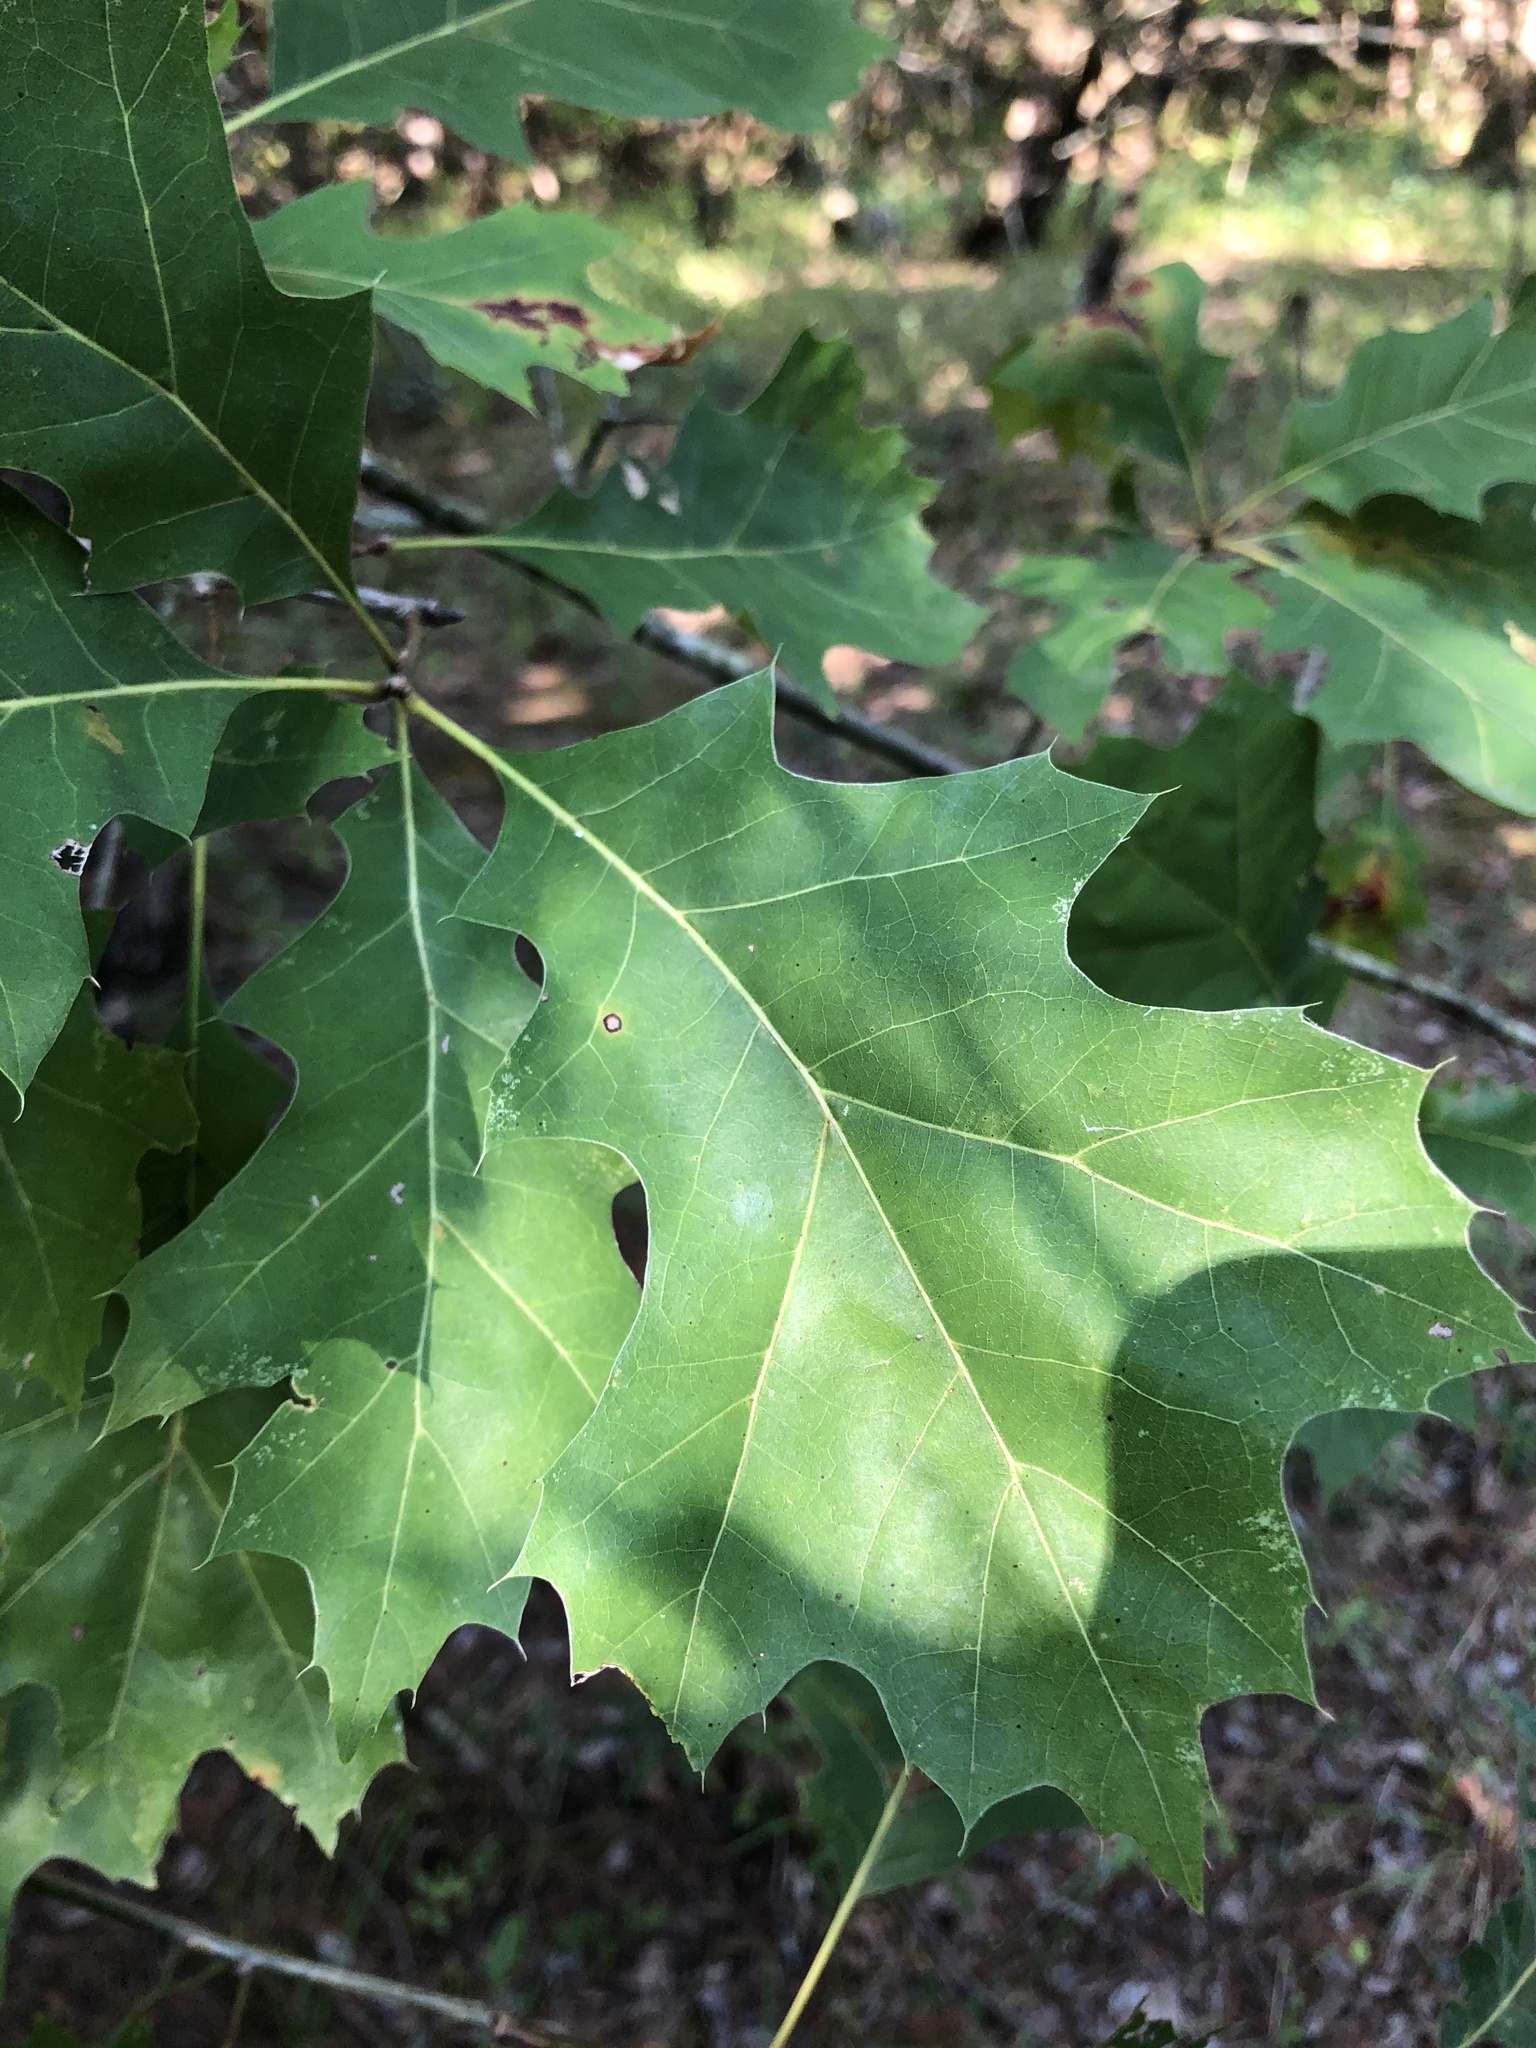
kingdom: Plantae
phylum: Tracheophyta
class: Magnoliopsida
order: Fagales
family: Fagaceae
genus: Quercus
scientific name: Quercus shumardii
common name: Shumard oak
